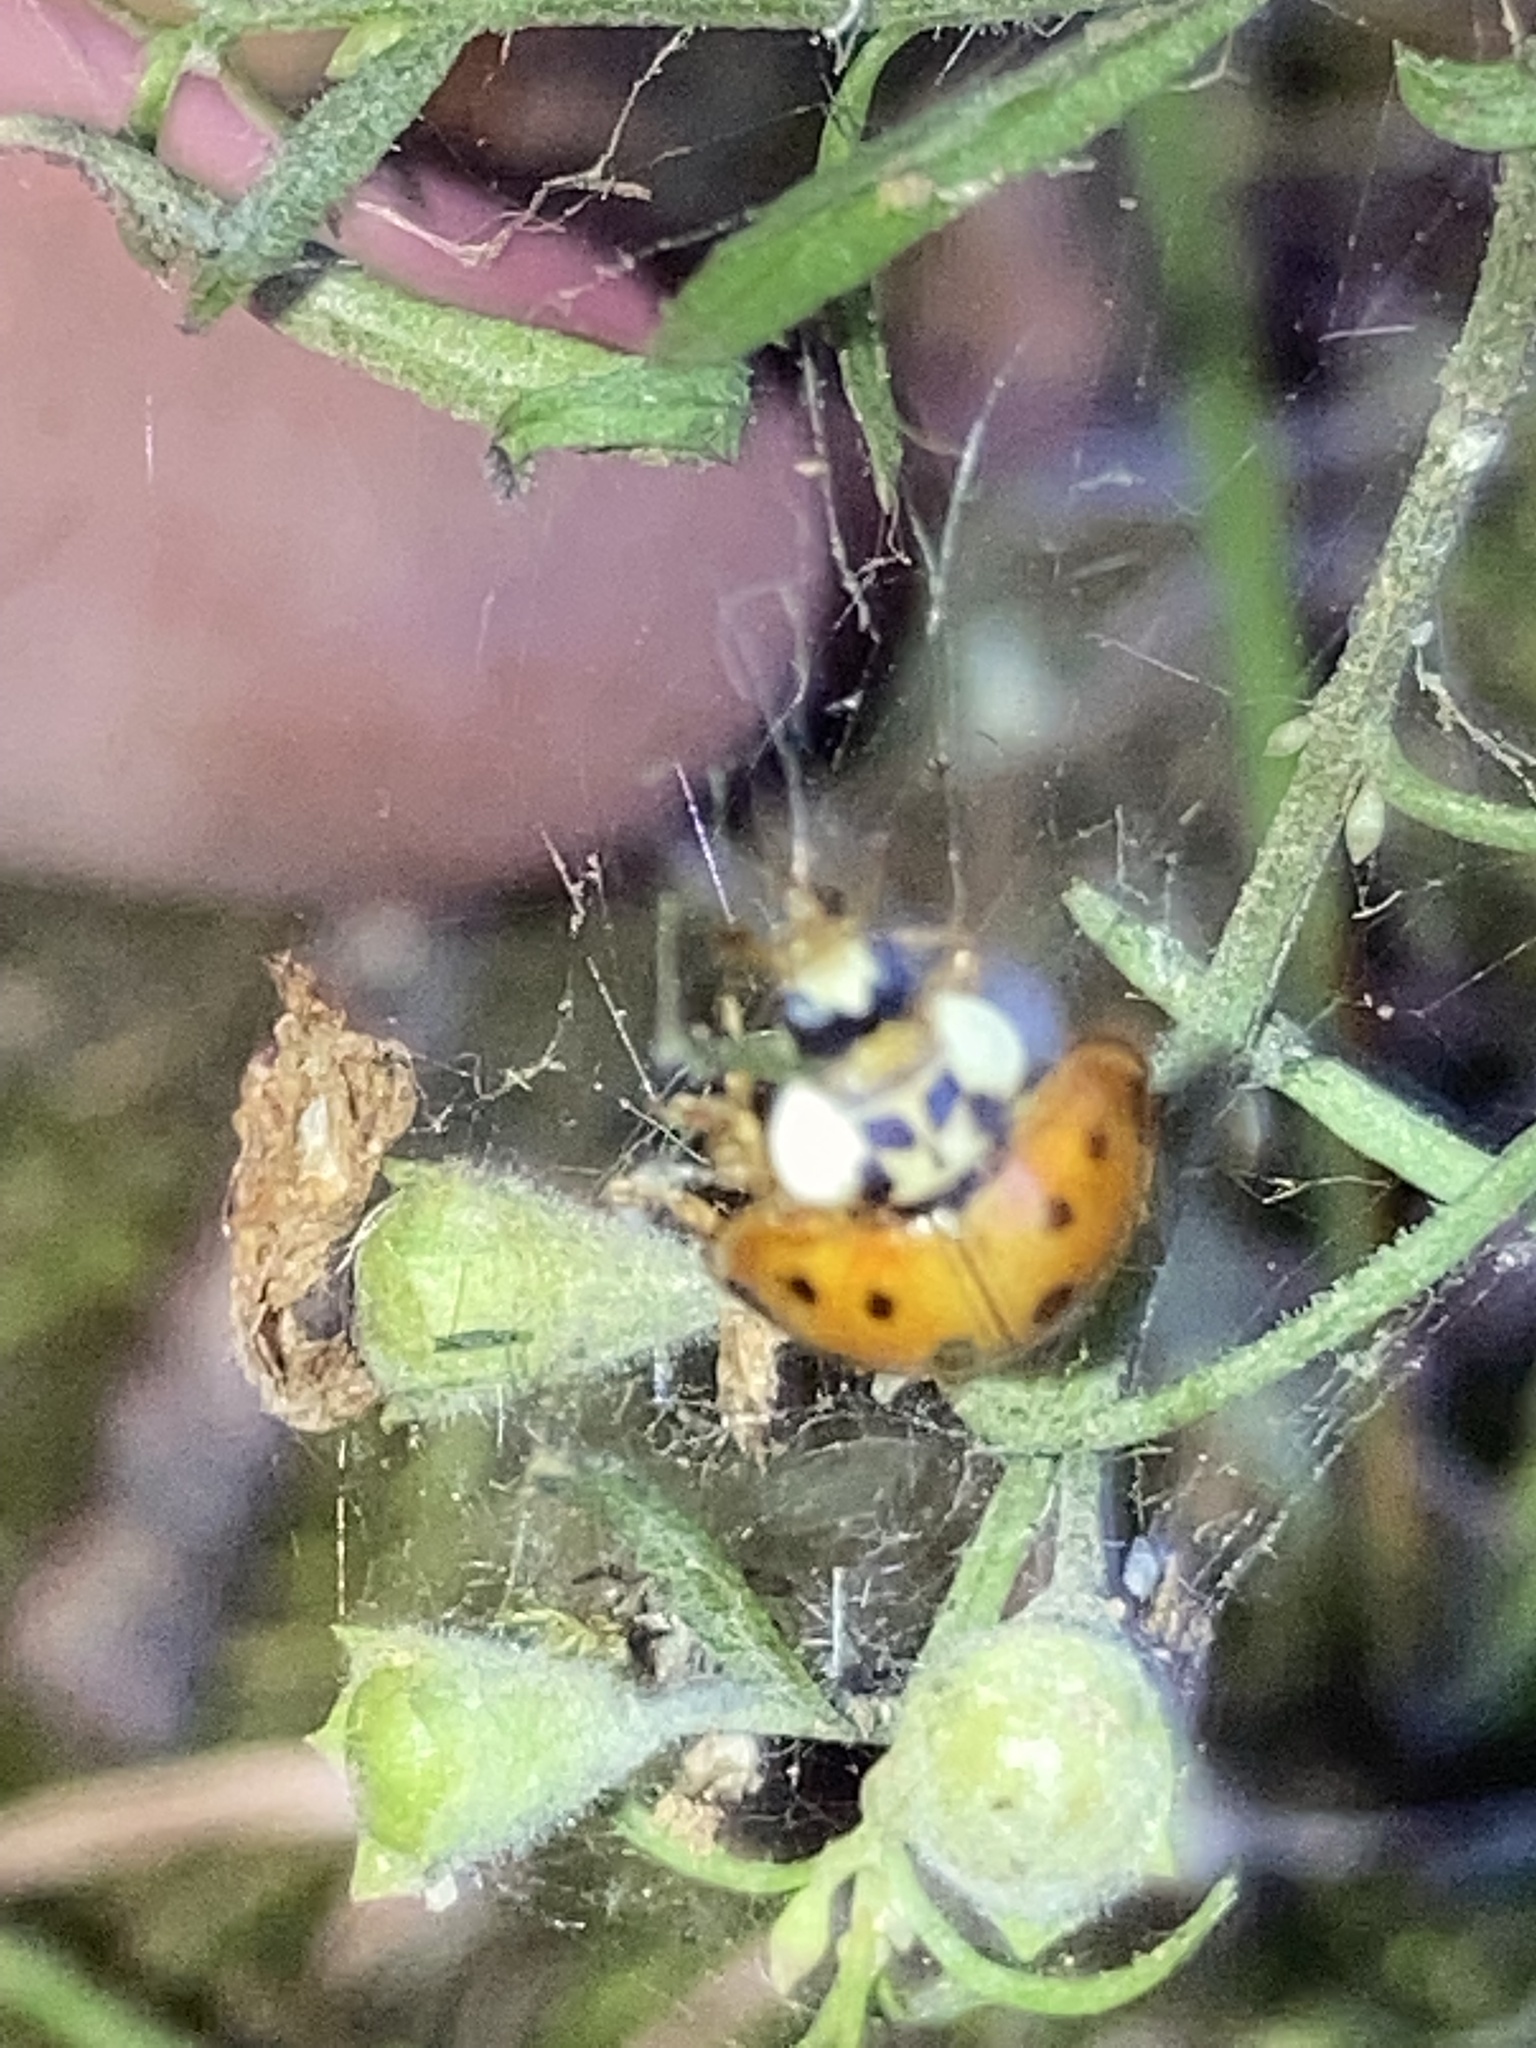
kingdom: Animalia
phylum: Arthropoda
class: Insecta
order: Coleoptera
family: Coccinellidae
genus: Harmonia
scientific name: Harmonia axyridis
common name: Harlequin ladybird
